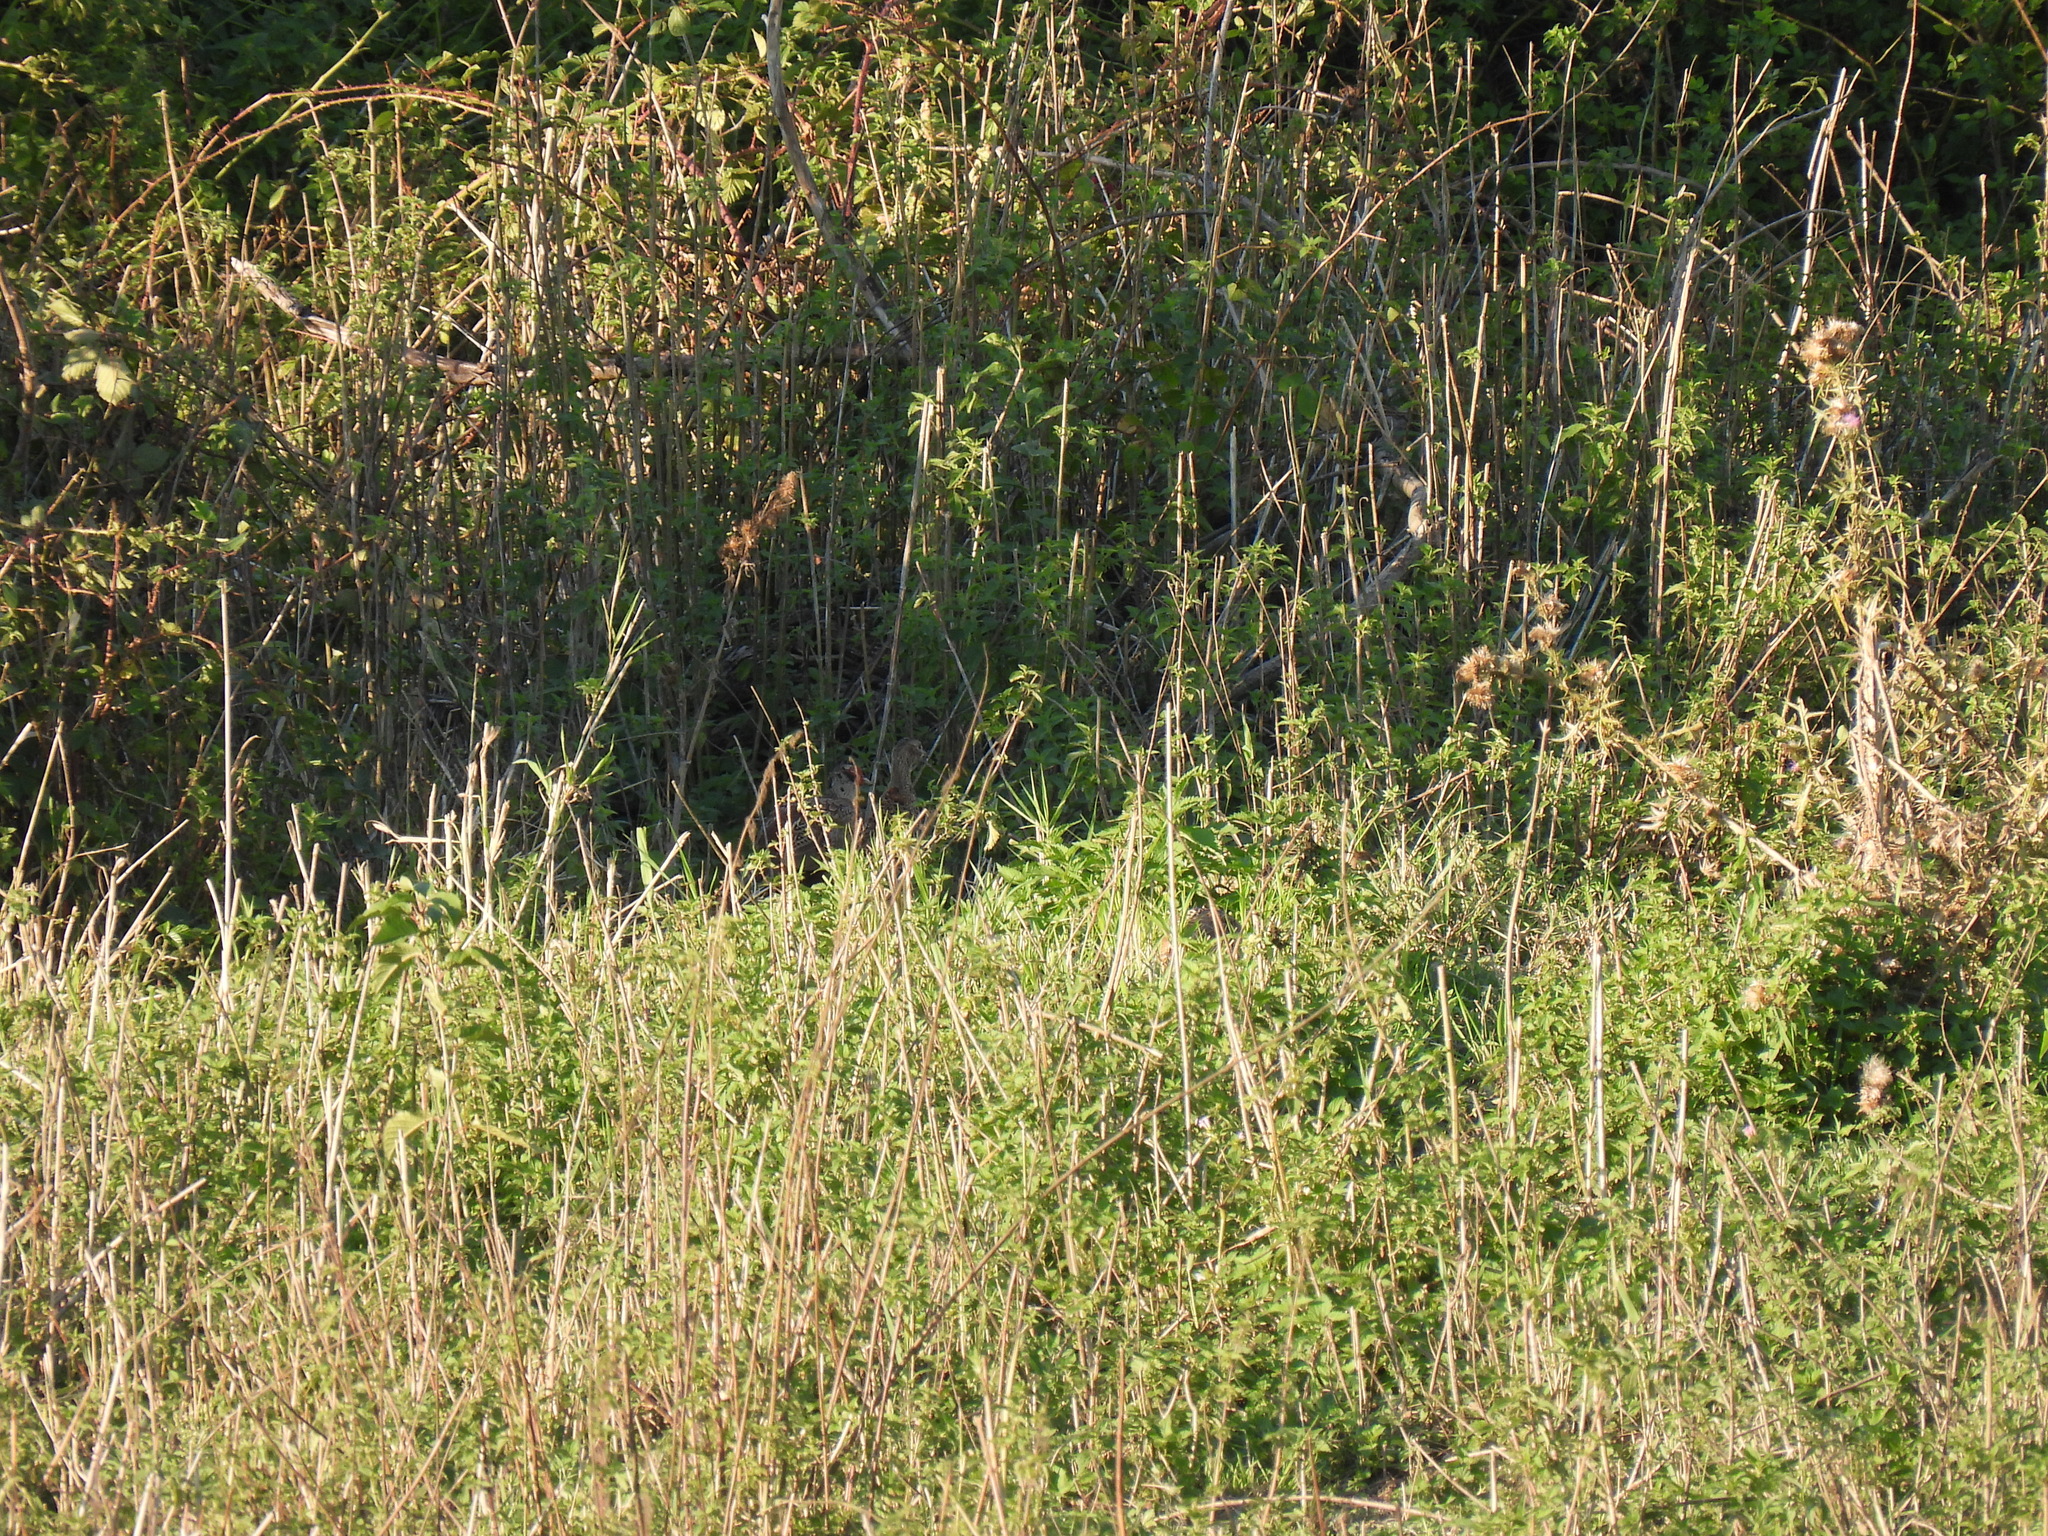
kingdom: Animalia
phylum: Chordata
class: Aves
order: Galliformes
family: Phasianidae
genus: Phasianus
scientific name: Phasianus colchicus
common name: Common pheasant
